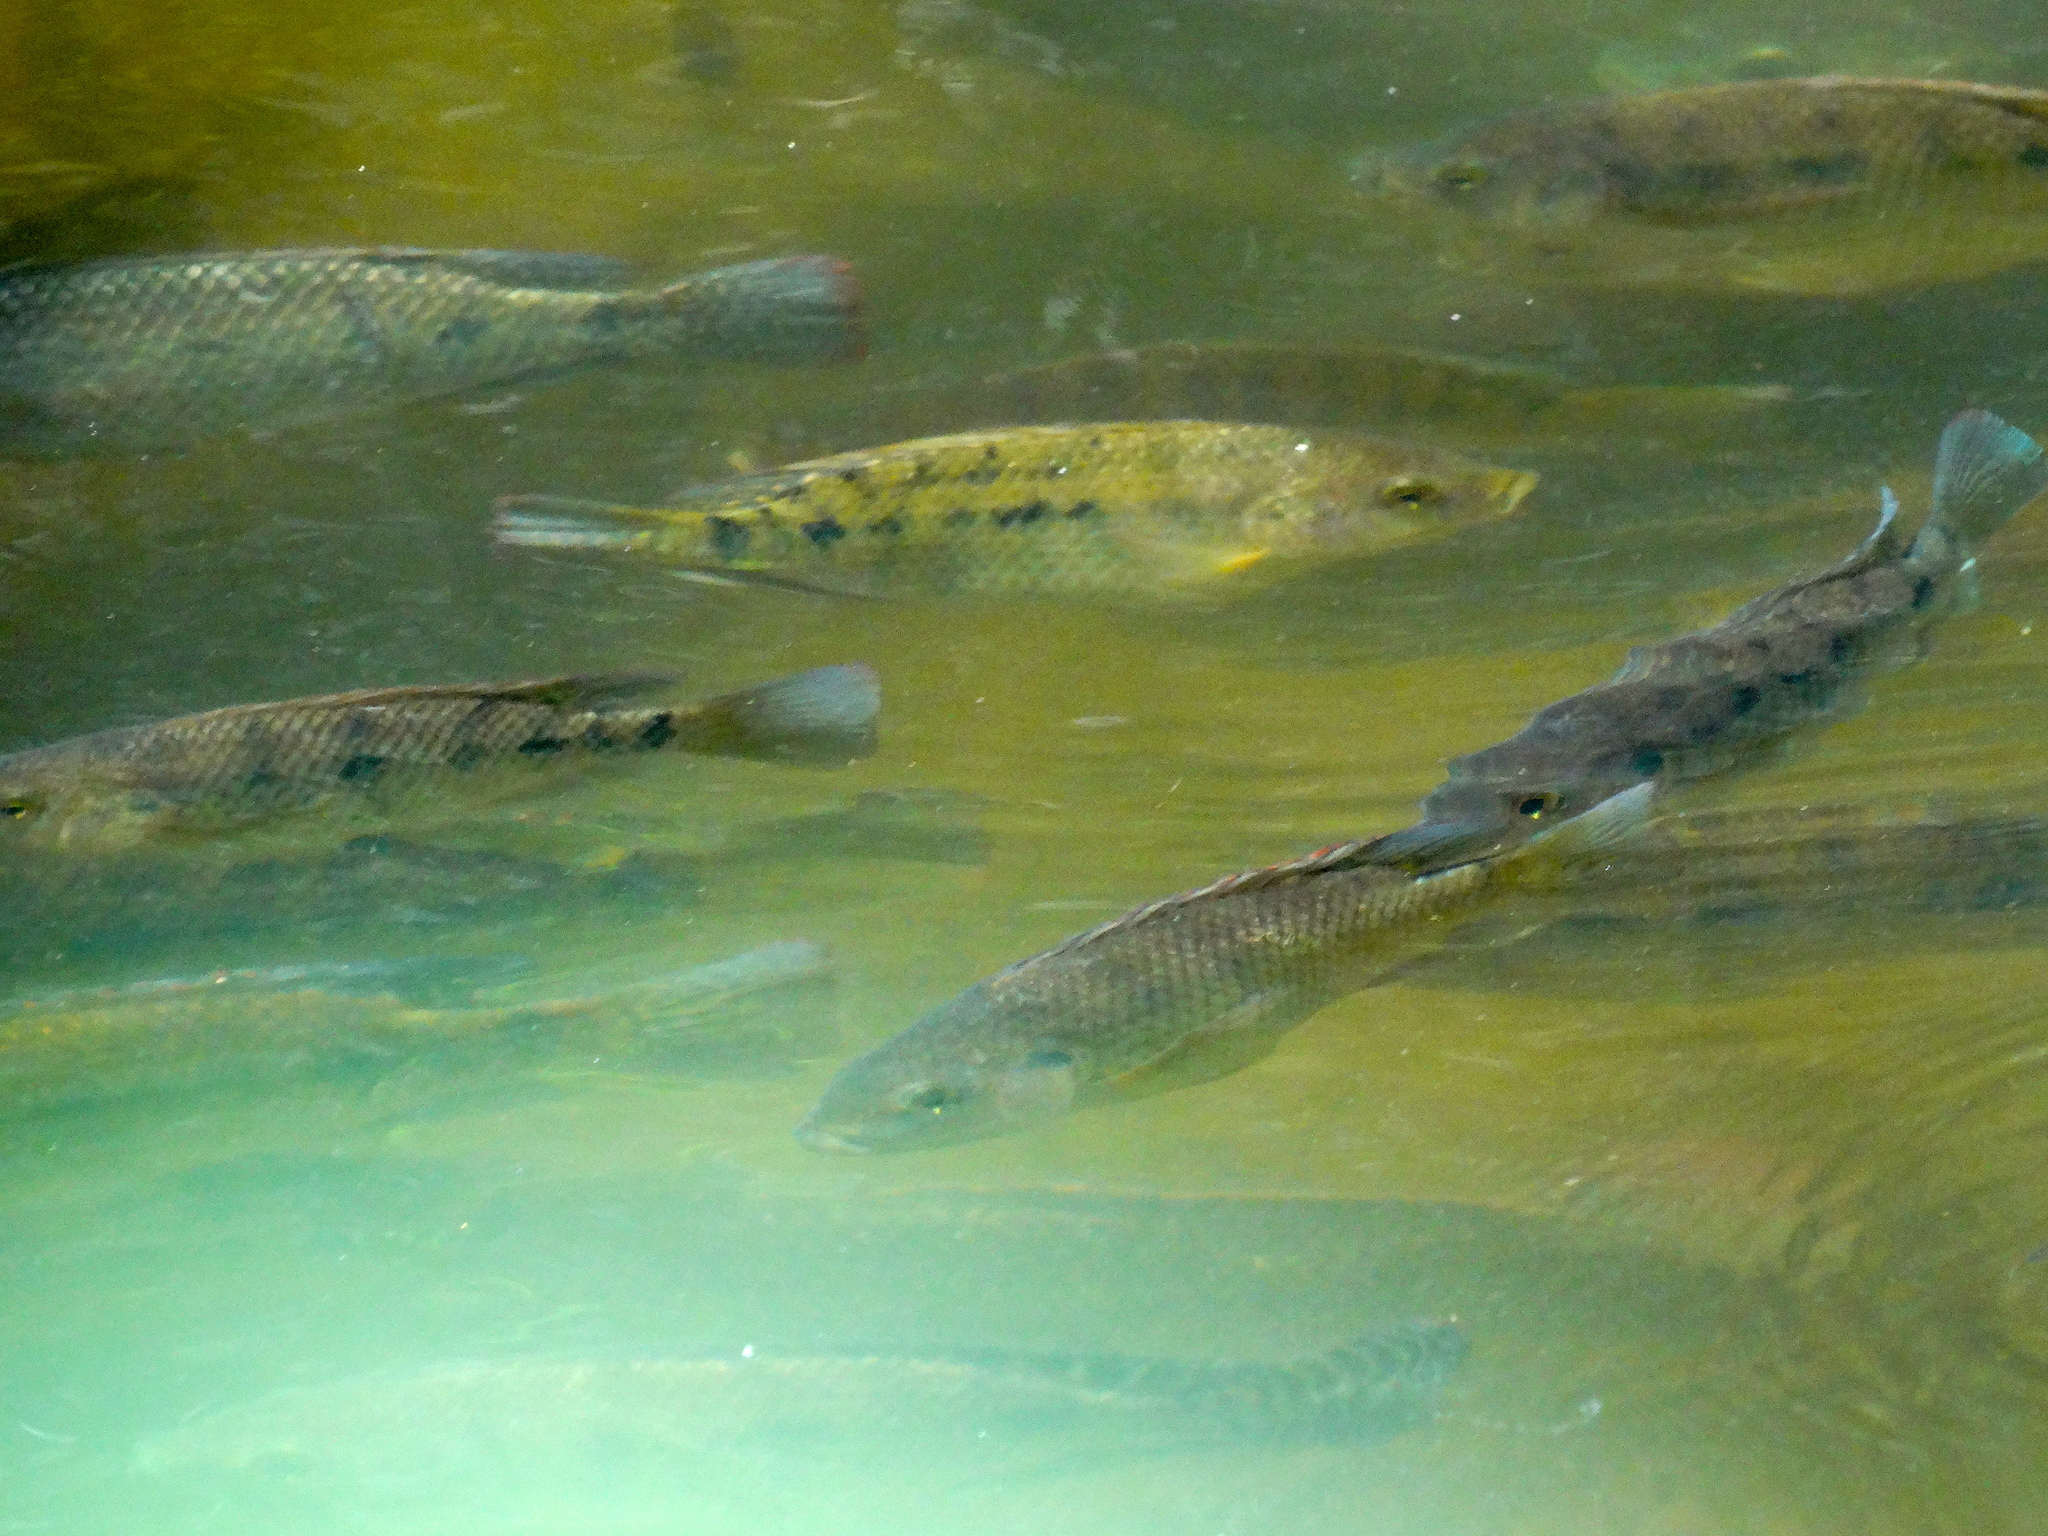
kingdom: Animalia
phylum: Chordata
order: Perciformes
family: Cichlidae
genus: Oreochromis
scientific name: Oreochromis
